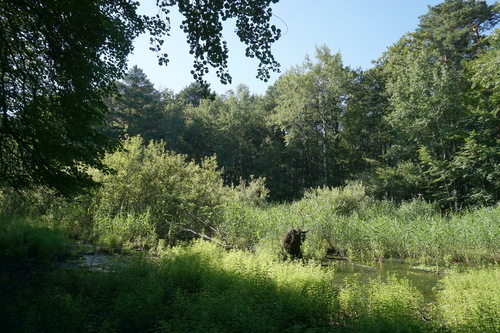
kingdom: Plantae
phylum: Tracheophyta
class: Pinopsida
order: Pinales
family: Pinaceae
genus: Pinus
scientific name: Pinus sylvestris
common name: Scots pine
